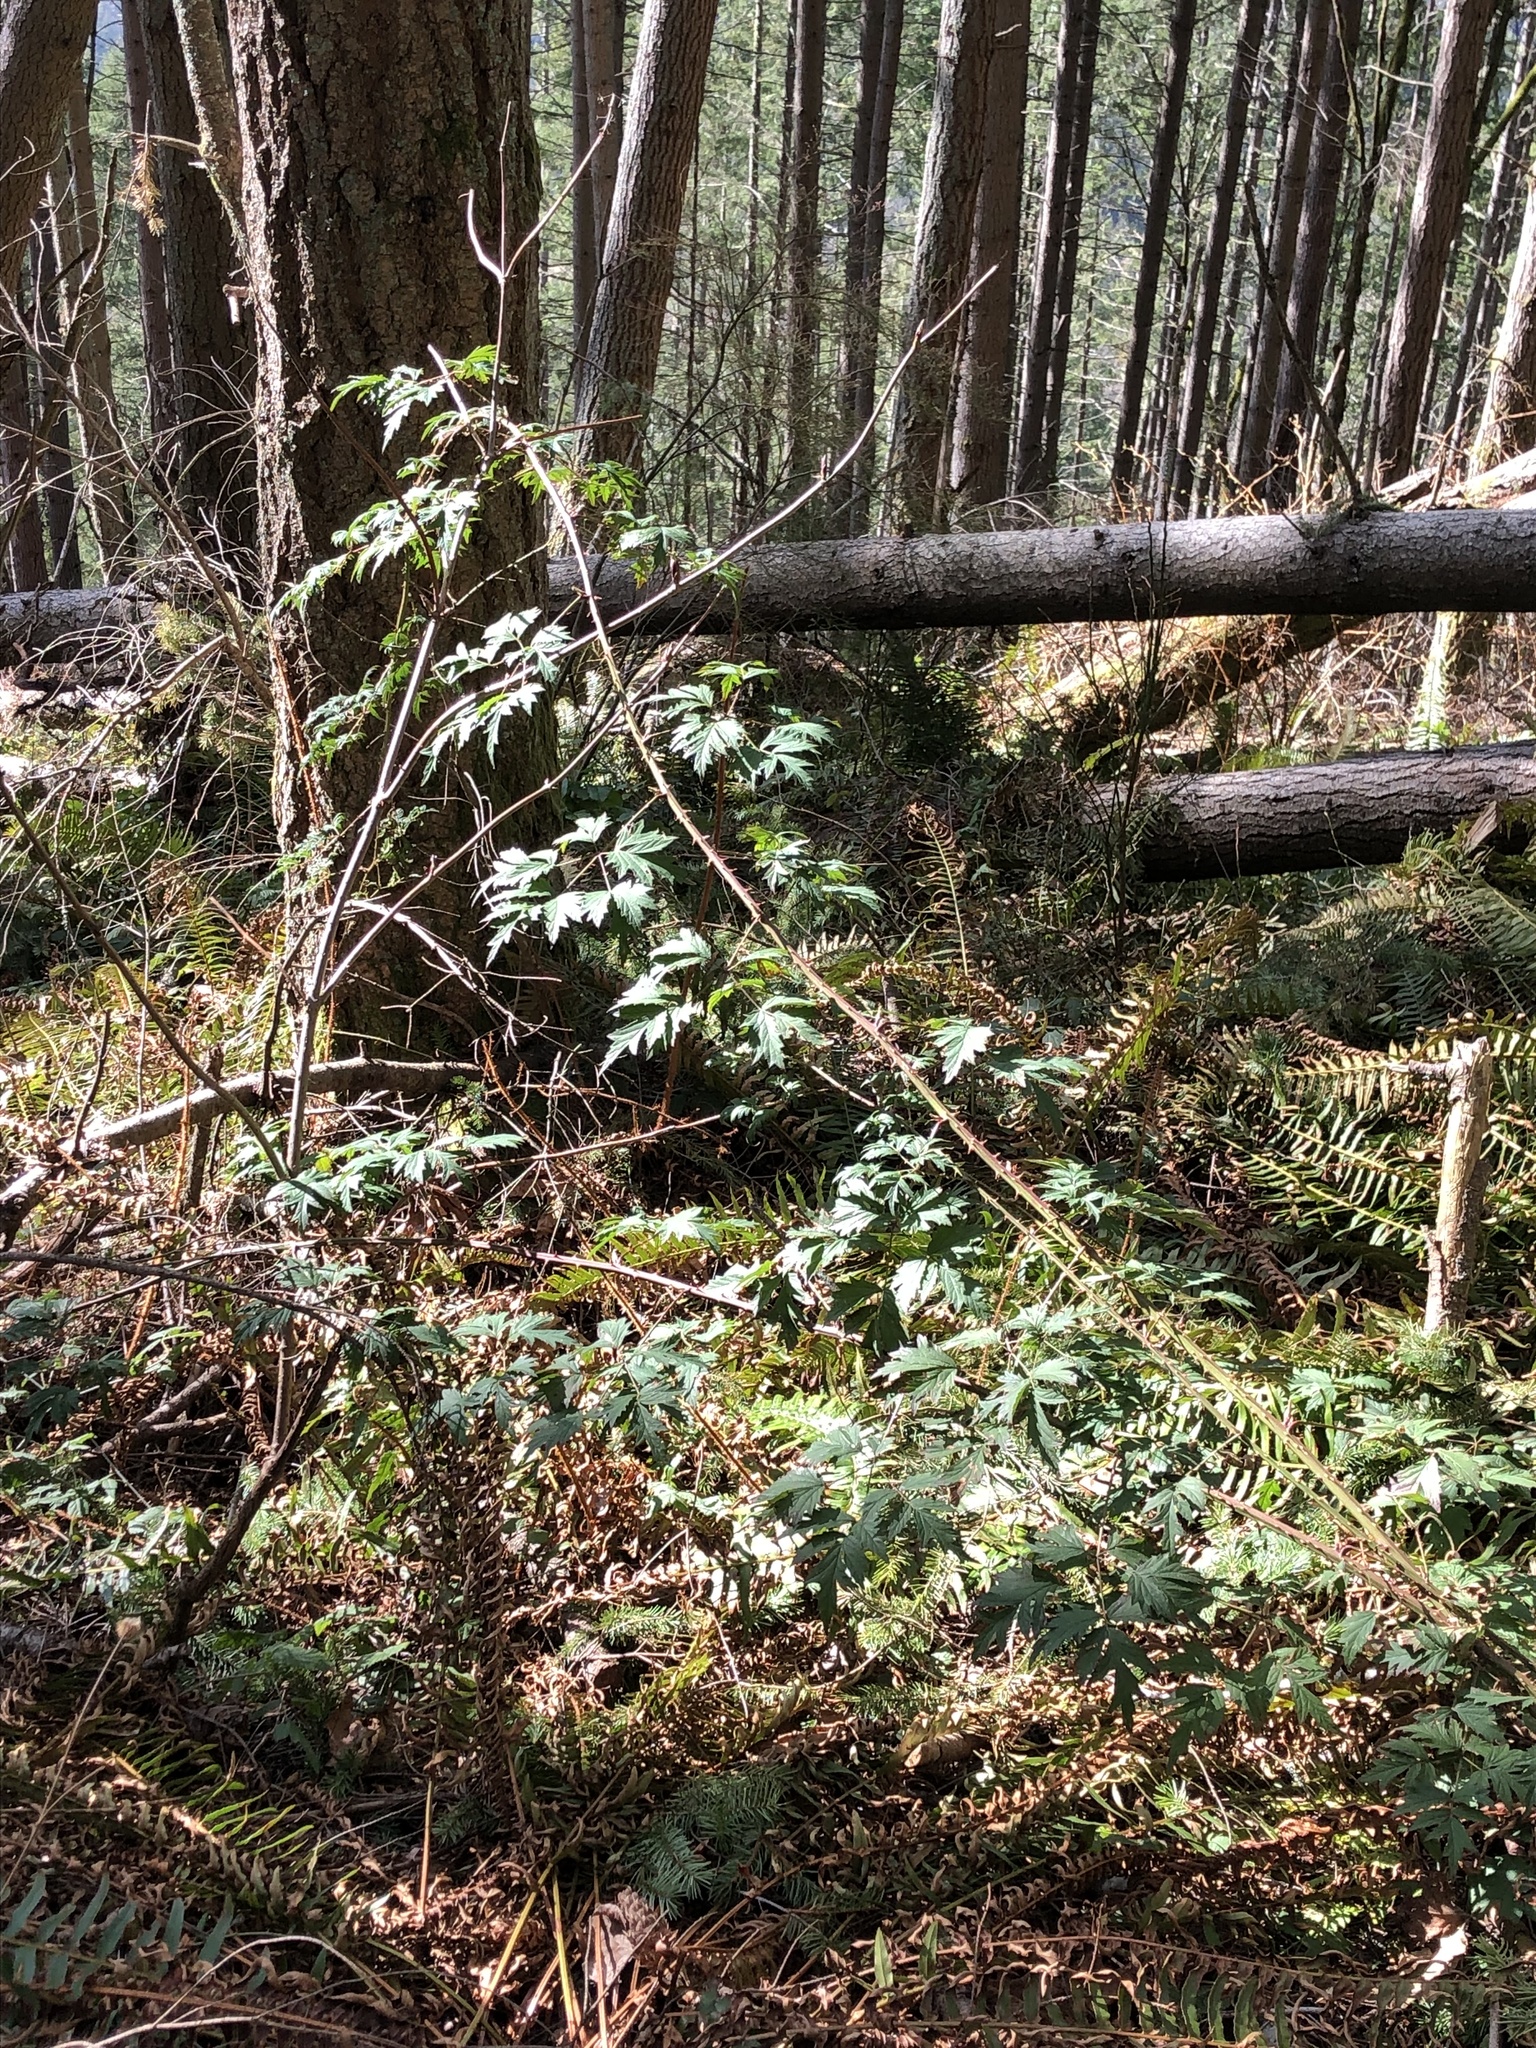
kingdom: Plantae
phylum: Tracheophyta
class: Magnoliopsida
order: Rosales
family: Rosaceae
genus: Rubus
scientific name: Rubus laciniatus
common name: Evergreen blackberry
